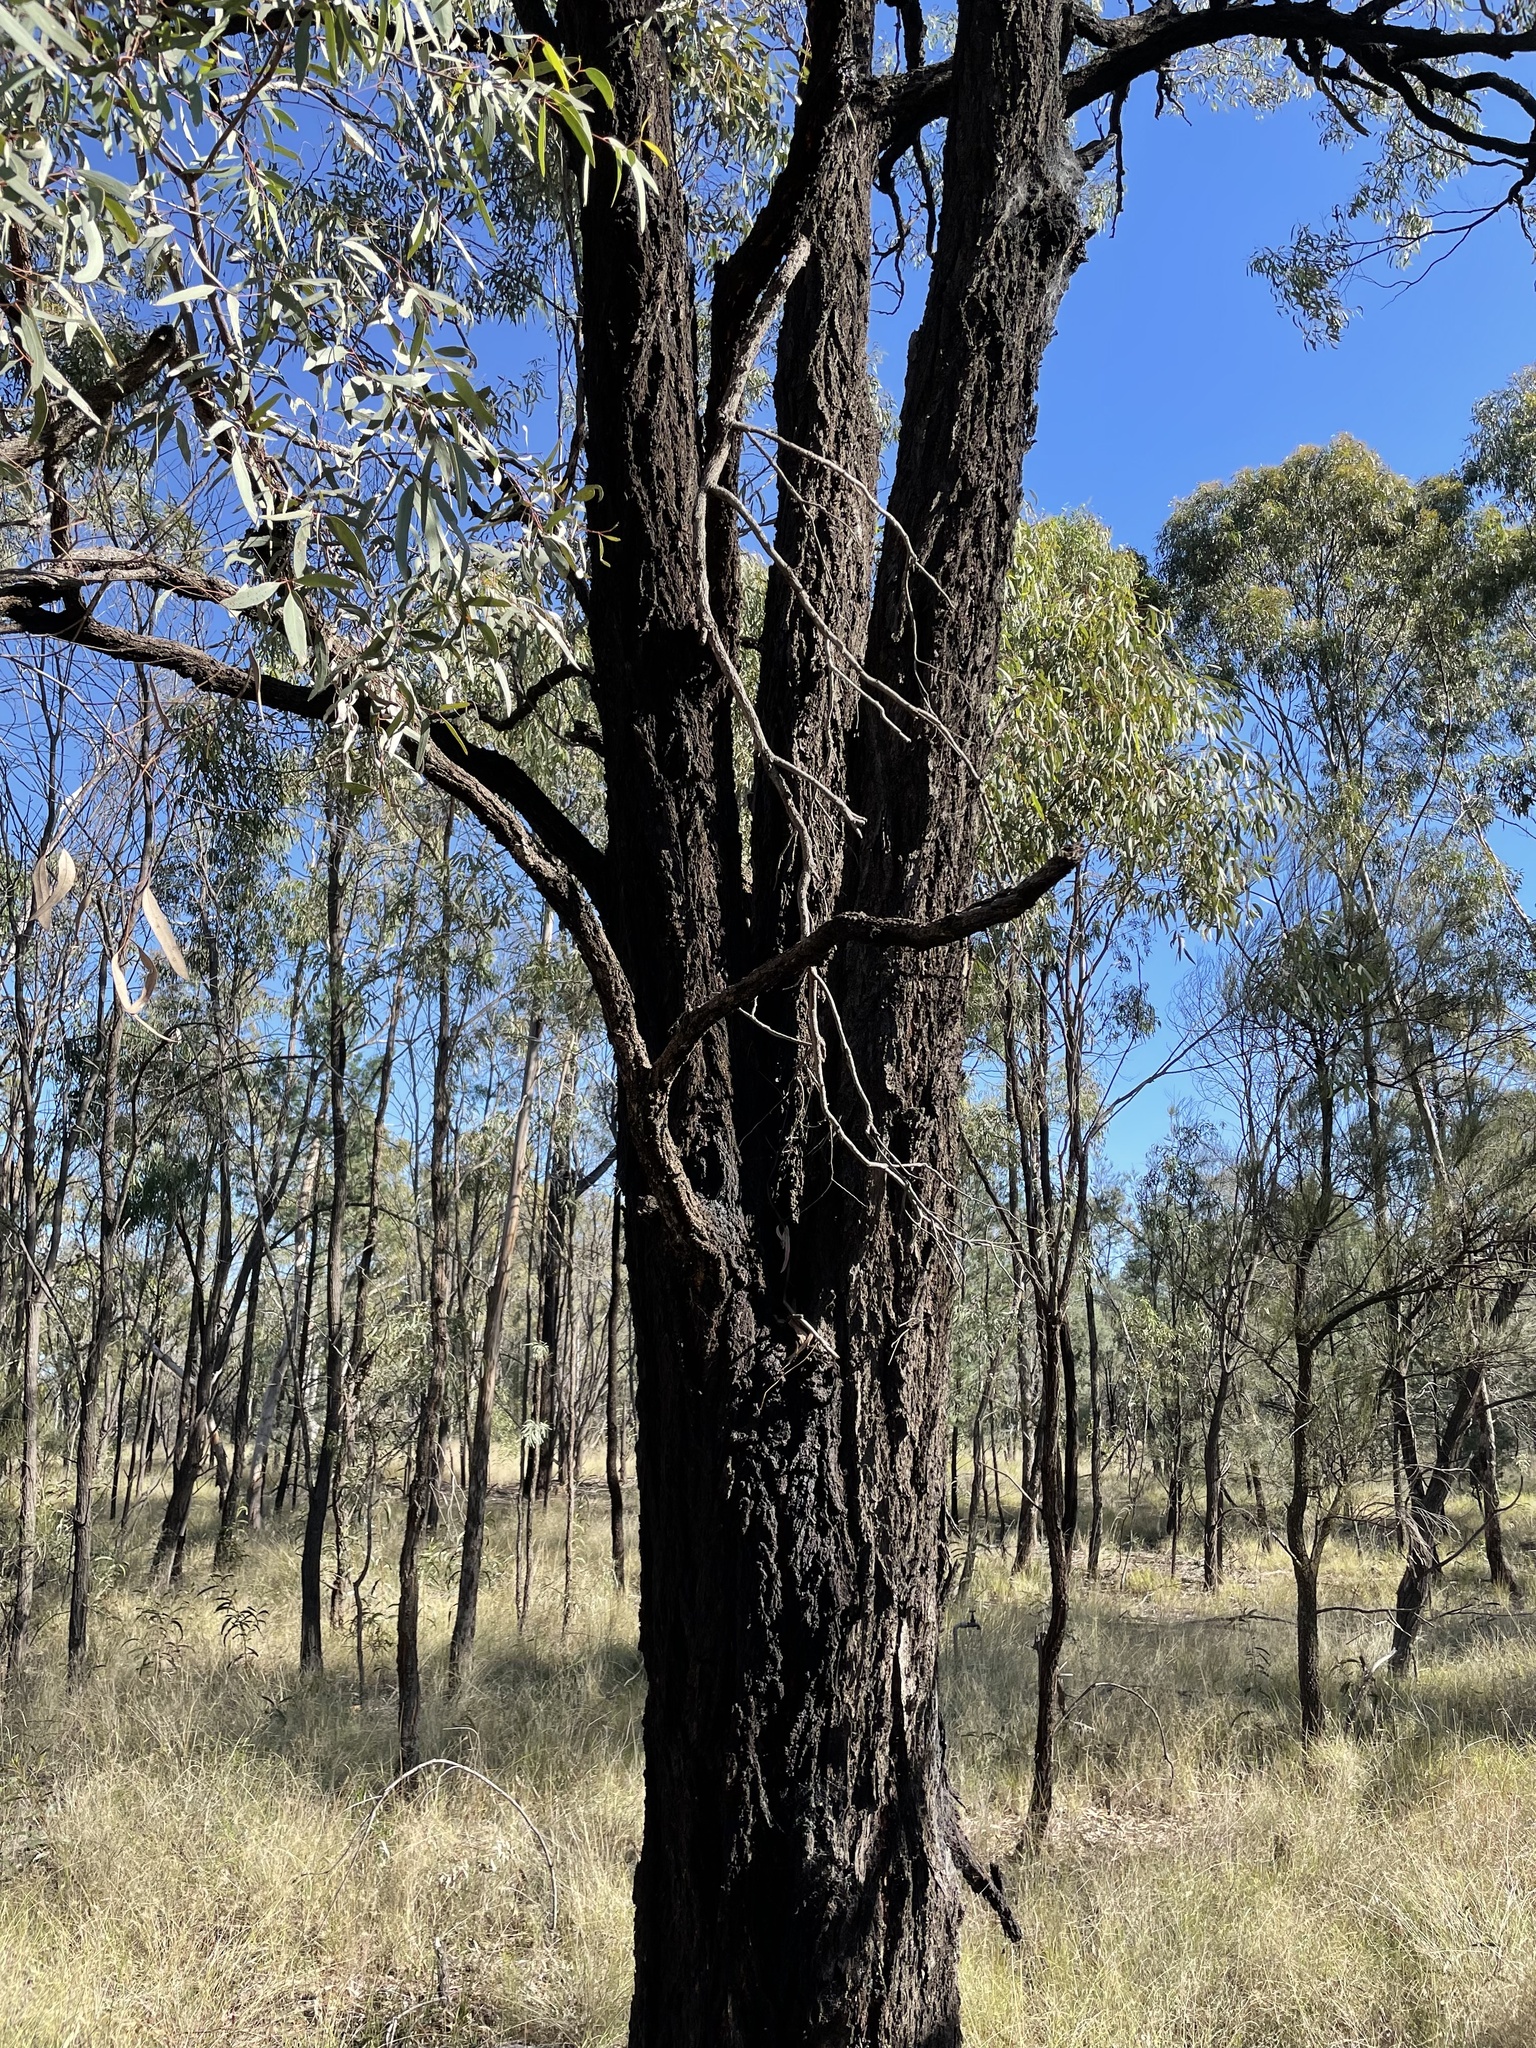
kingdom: Plantae
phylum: Tracheophyta
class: Magnoliopsida
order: Myrtales
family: Myrtaceae
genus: Eucalyptus
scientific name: Eucalyptus crebra
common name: Narrowleaf red ironbark
